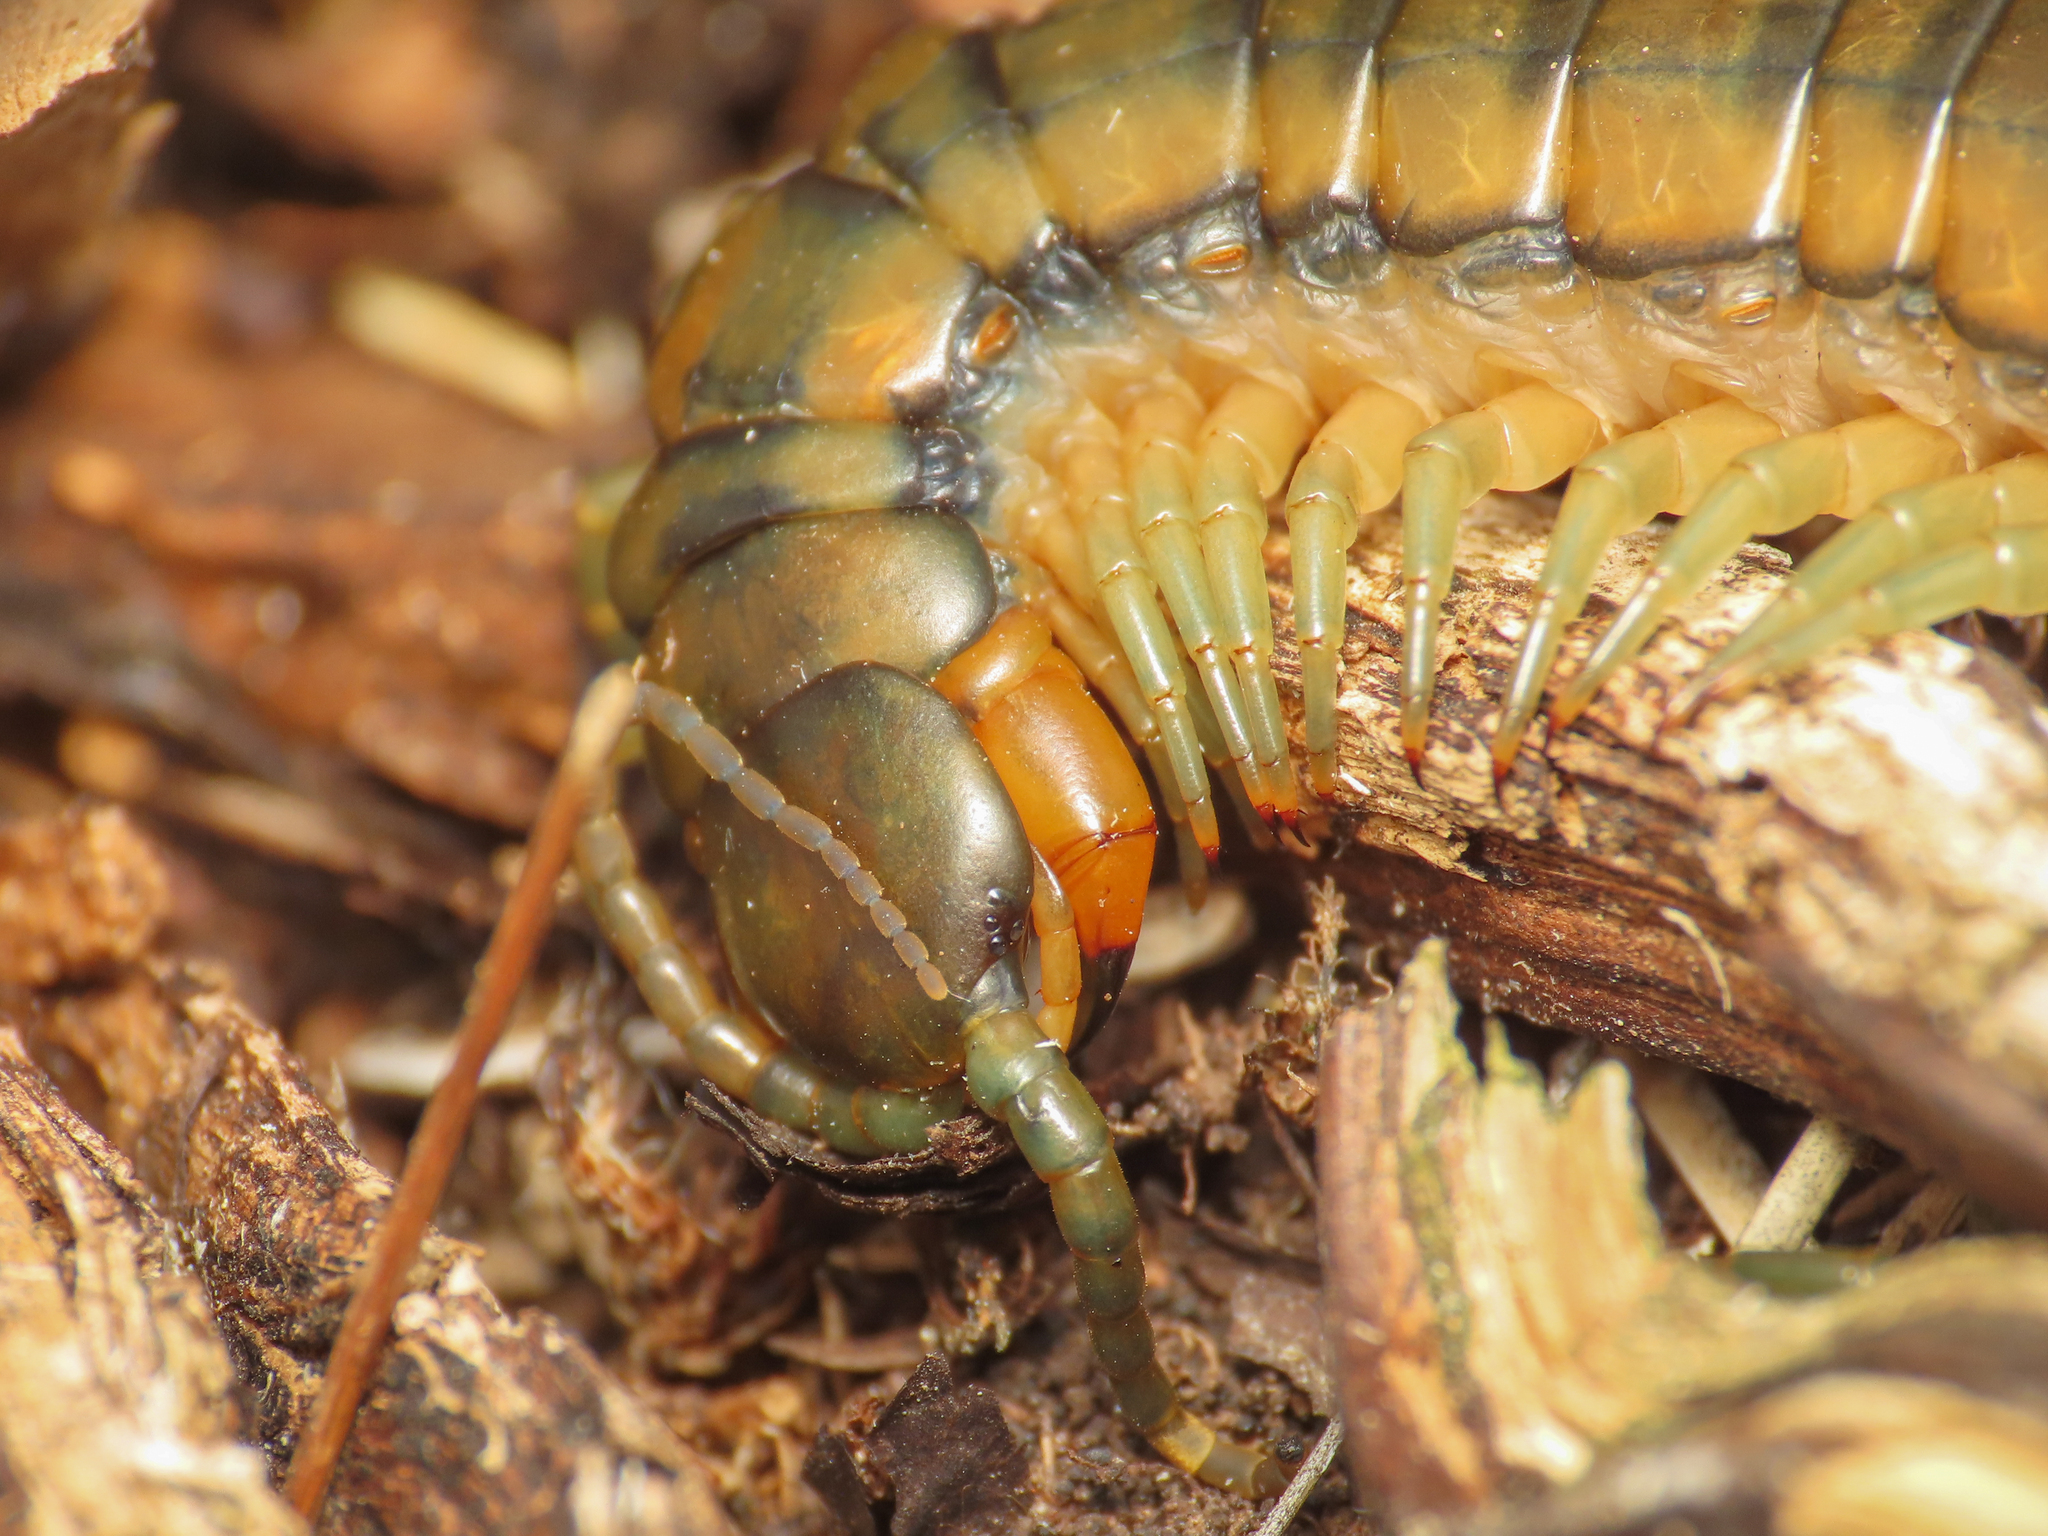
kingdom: Animalia
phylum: Arthropoda
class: Chilopoda
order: Scolopendromorpha
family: Scolopendridae
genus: Scolopendra
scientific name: Scolopendra cingulata
